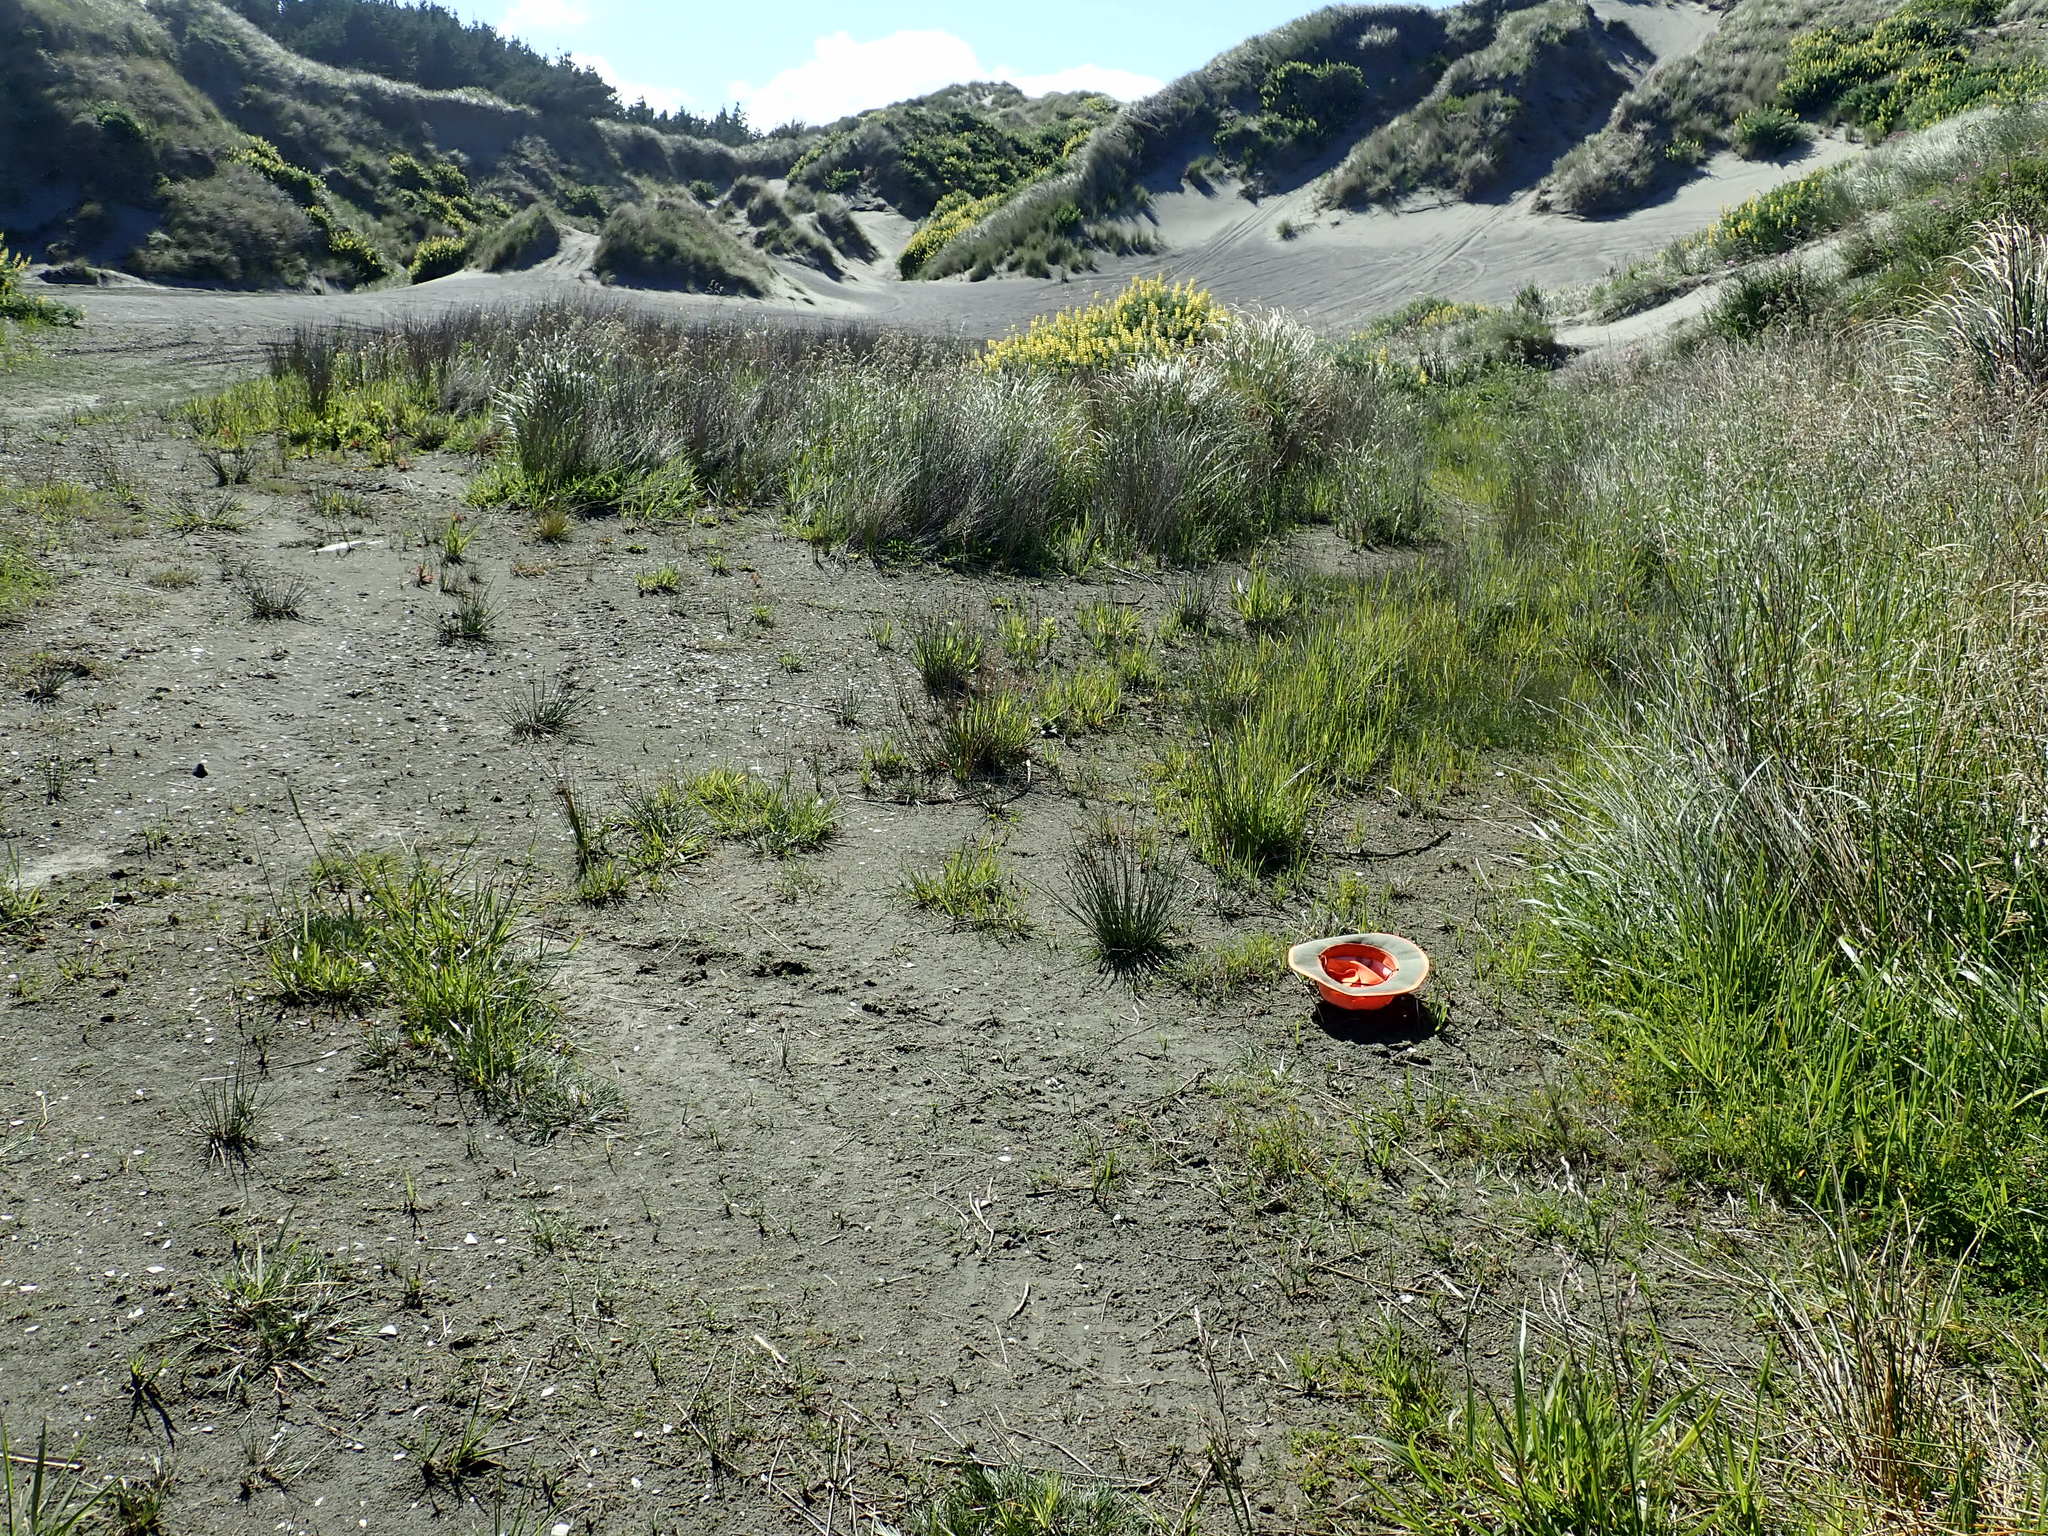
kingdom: Plantae
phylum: Tracheophyta
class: Magnoliopsida
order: Asterales
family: Goodeniaceae
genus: Goodenia
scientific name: Goodenia heenanii
